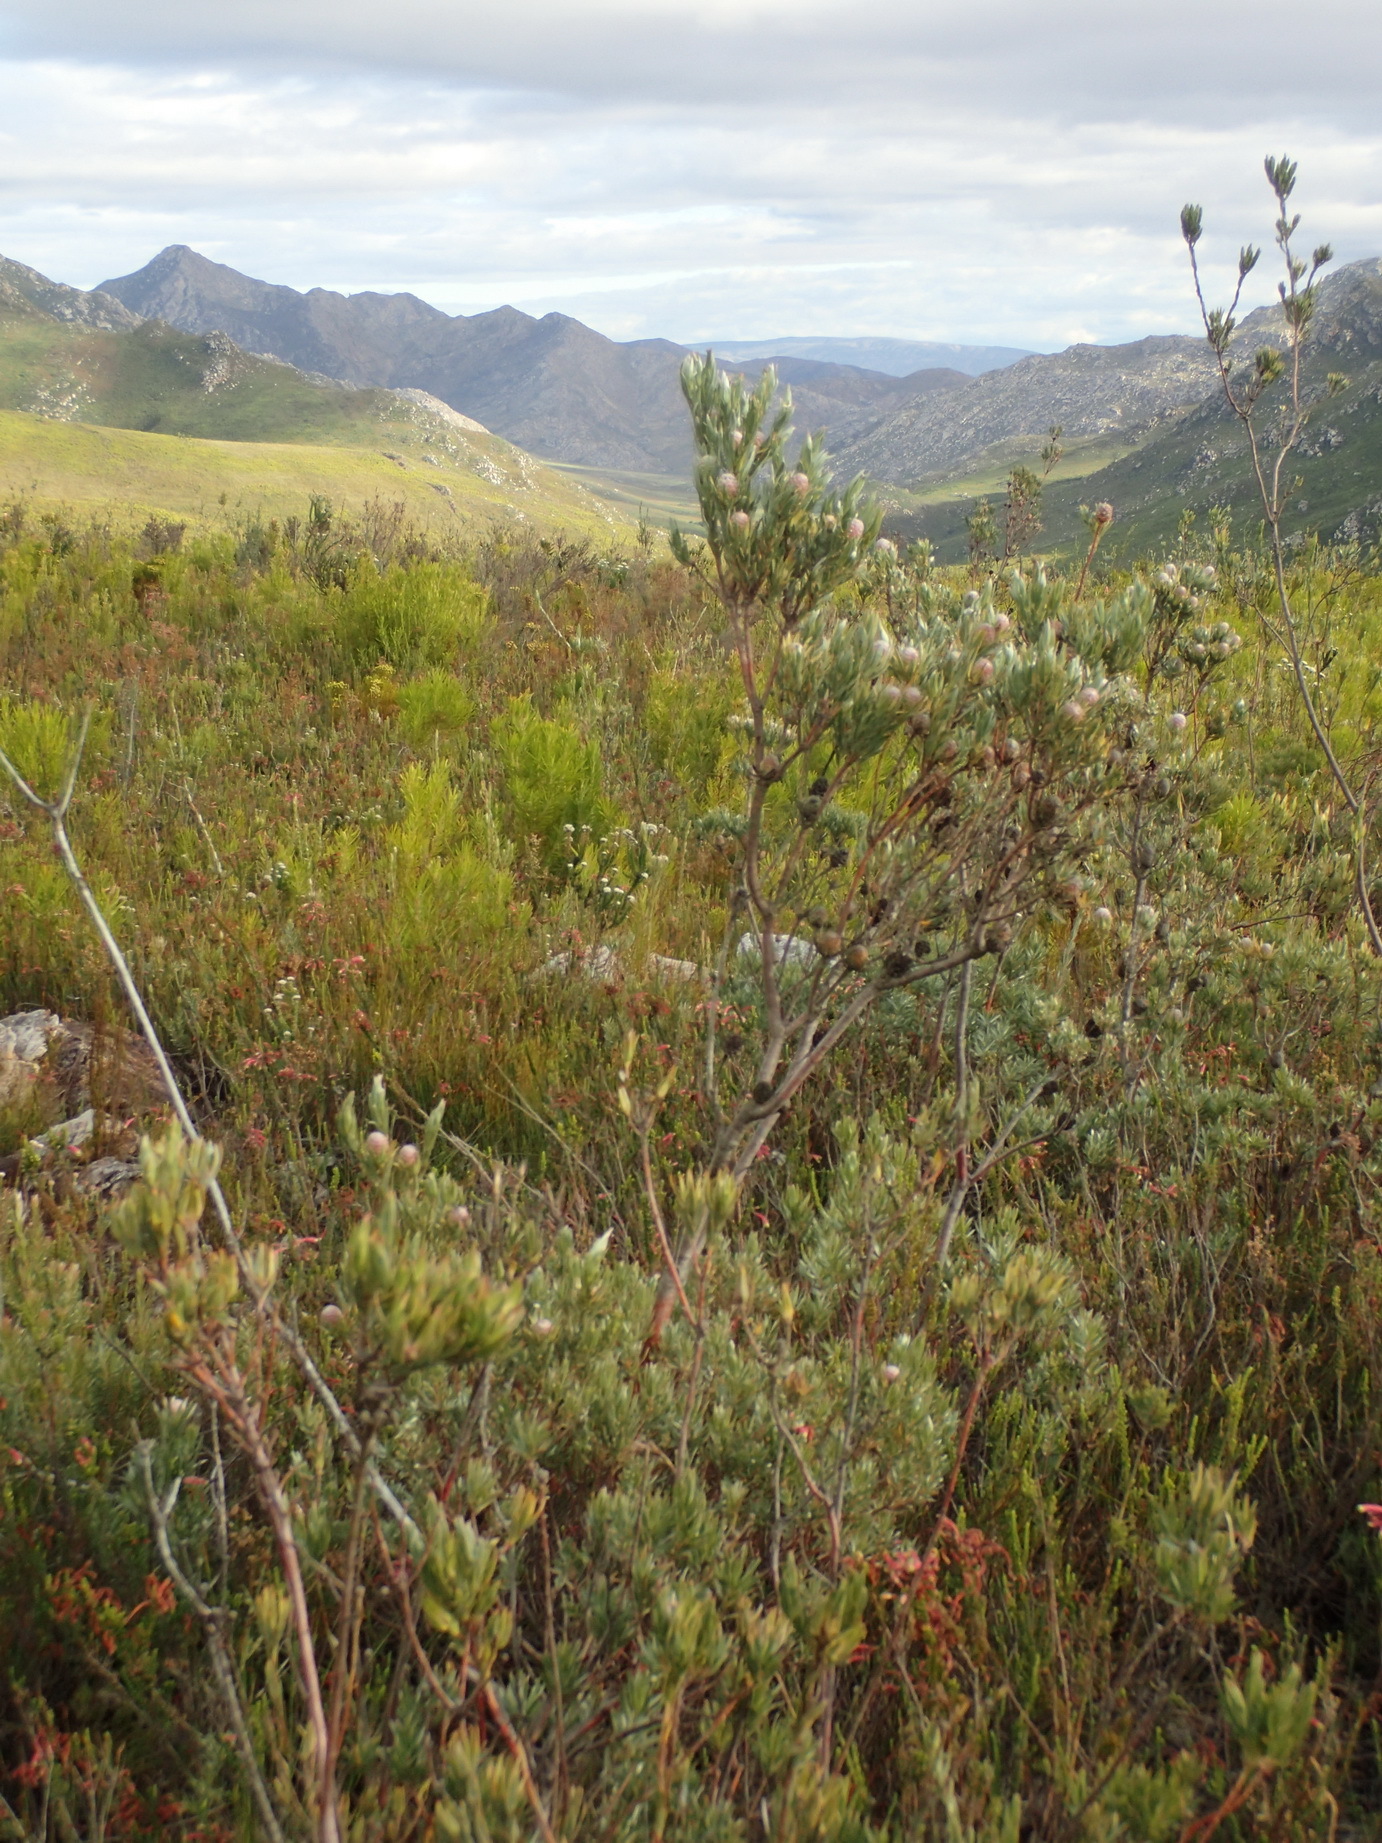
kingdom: Plantae
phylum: Tracheophyta
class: Magnoliopsida
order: Proteales
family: Proteaceae
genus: Leucadendron
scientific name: Leucadendron uliginosum
